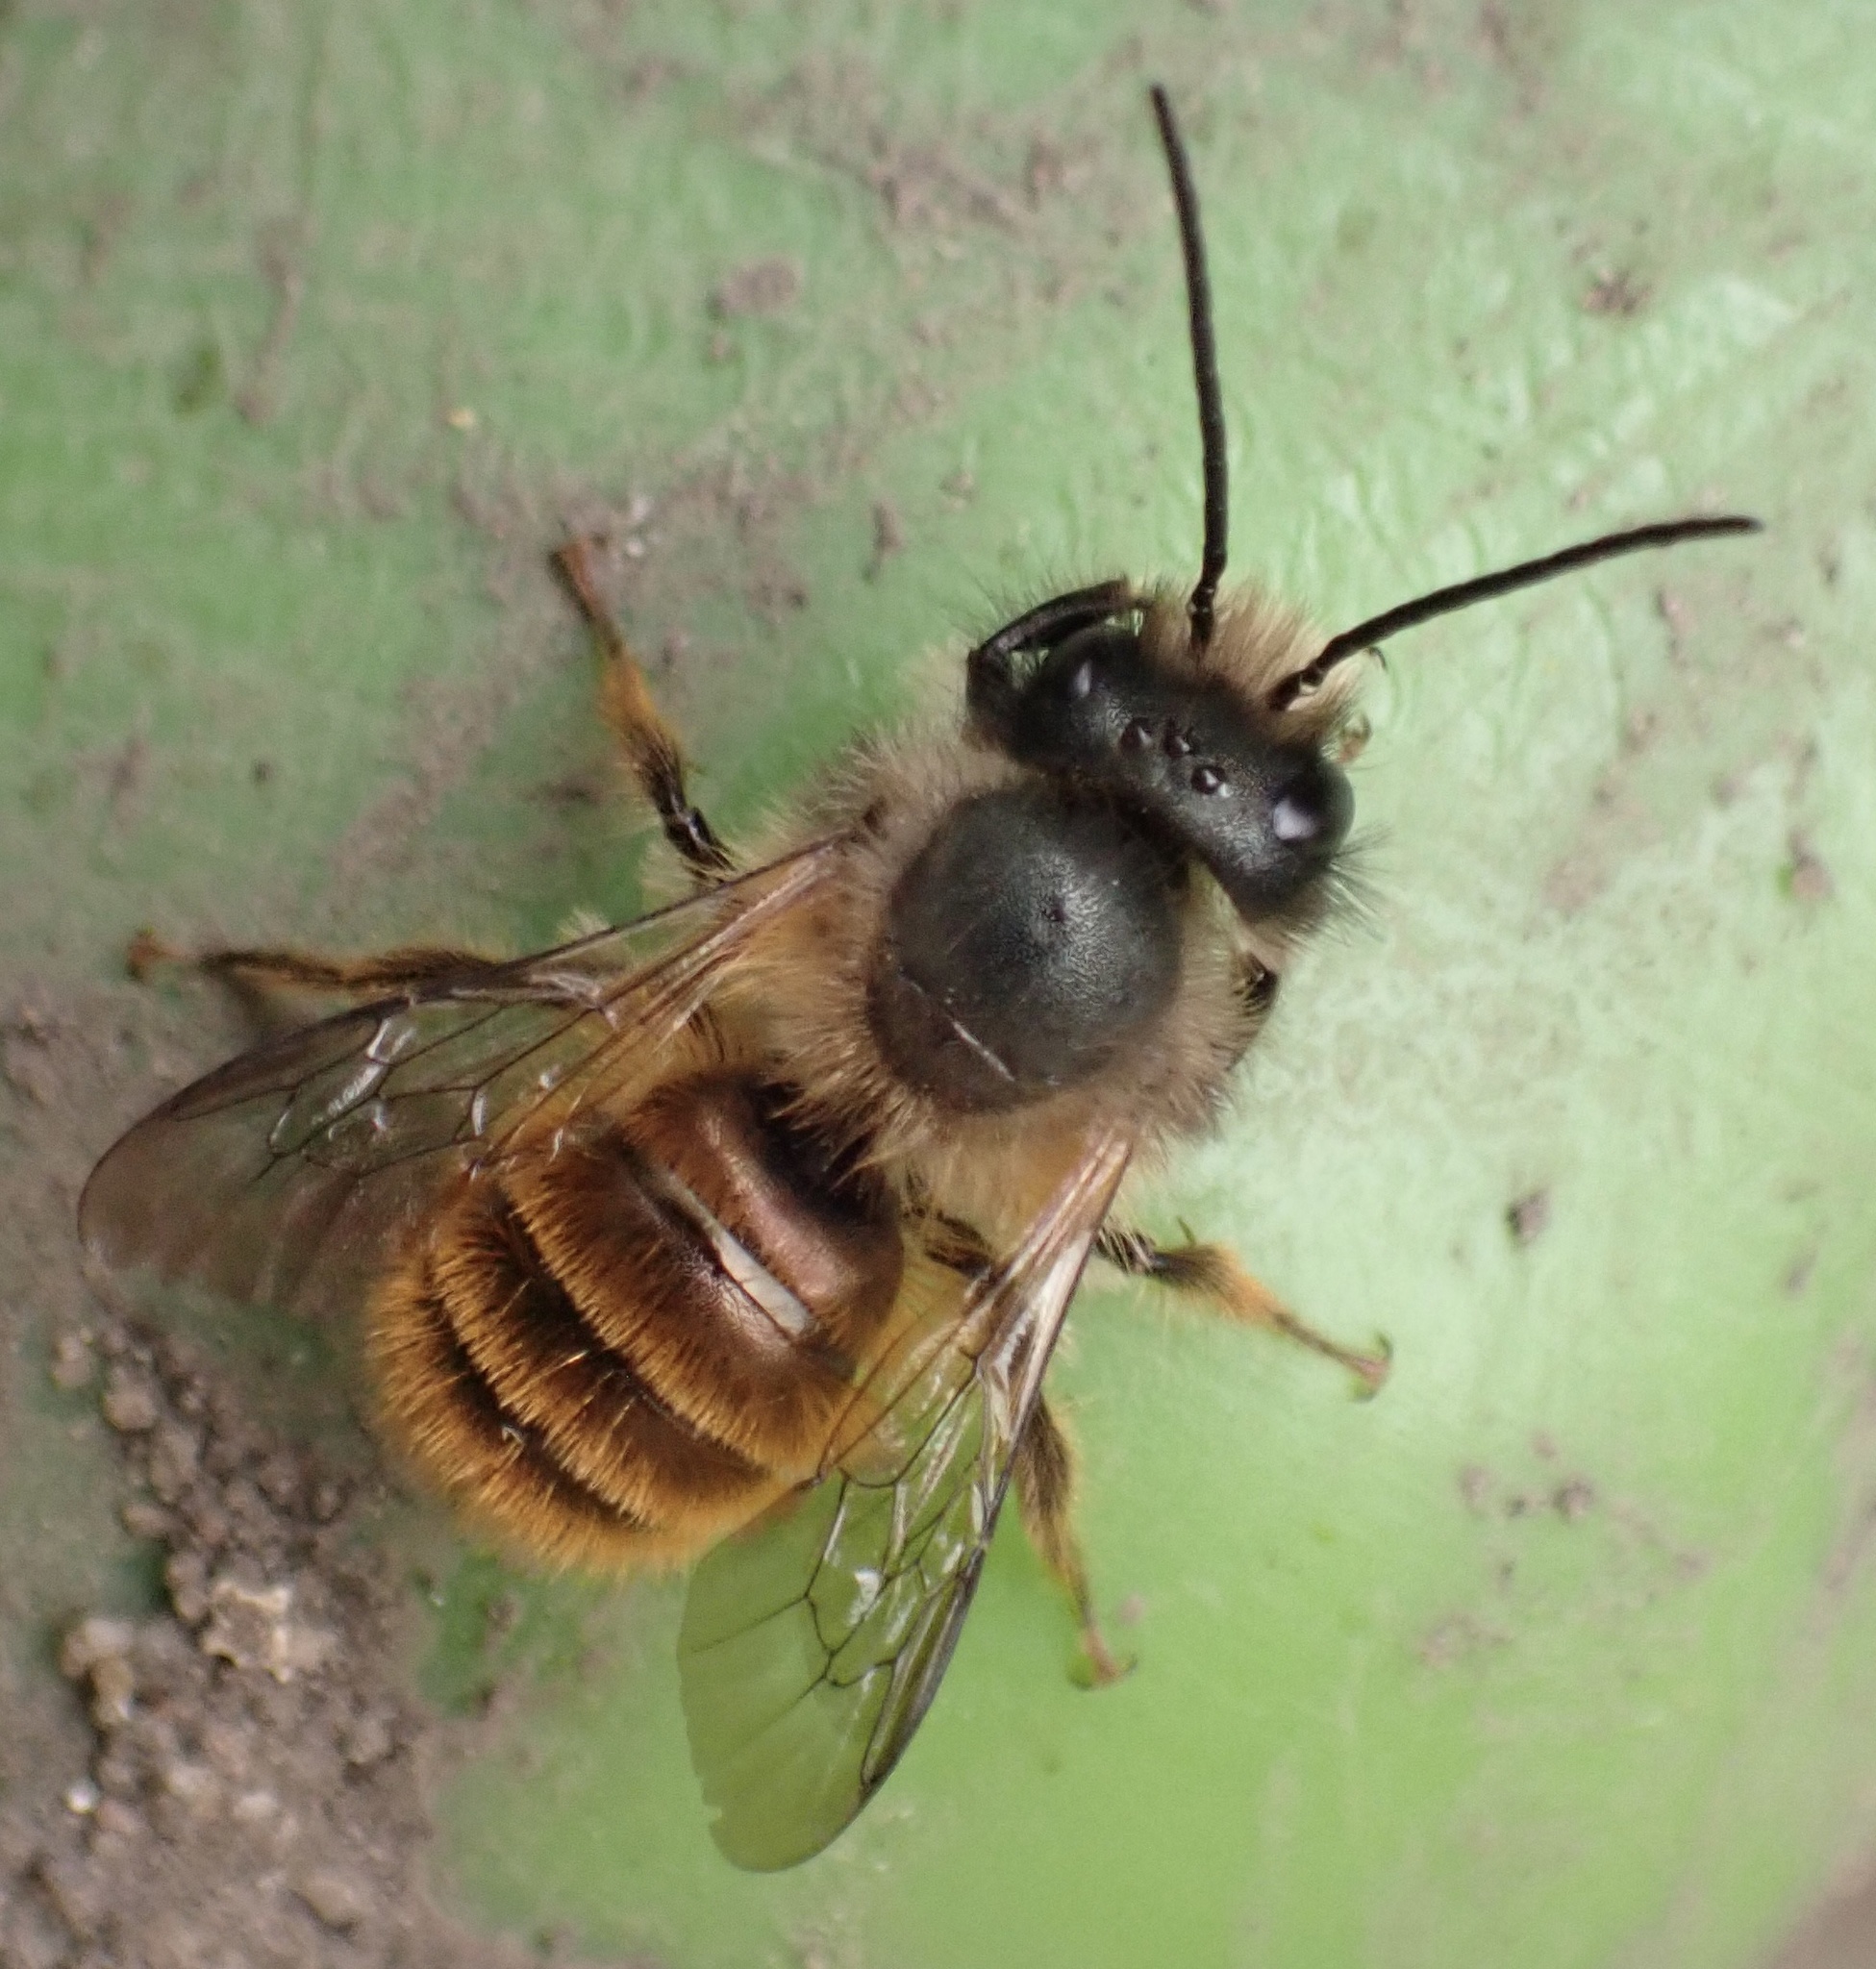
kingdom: Animalia
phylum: Arthropoda
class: Insecta
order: Hymenoptera
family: Megachilidae
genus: Osmia
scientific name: Osmia bicornis
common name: Red mason bee
